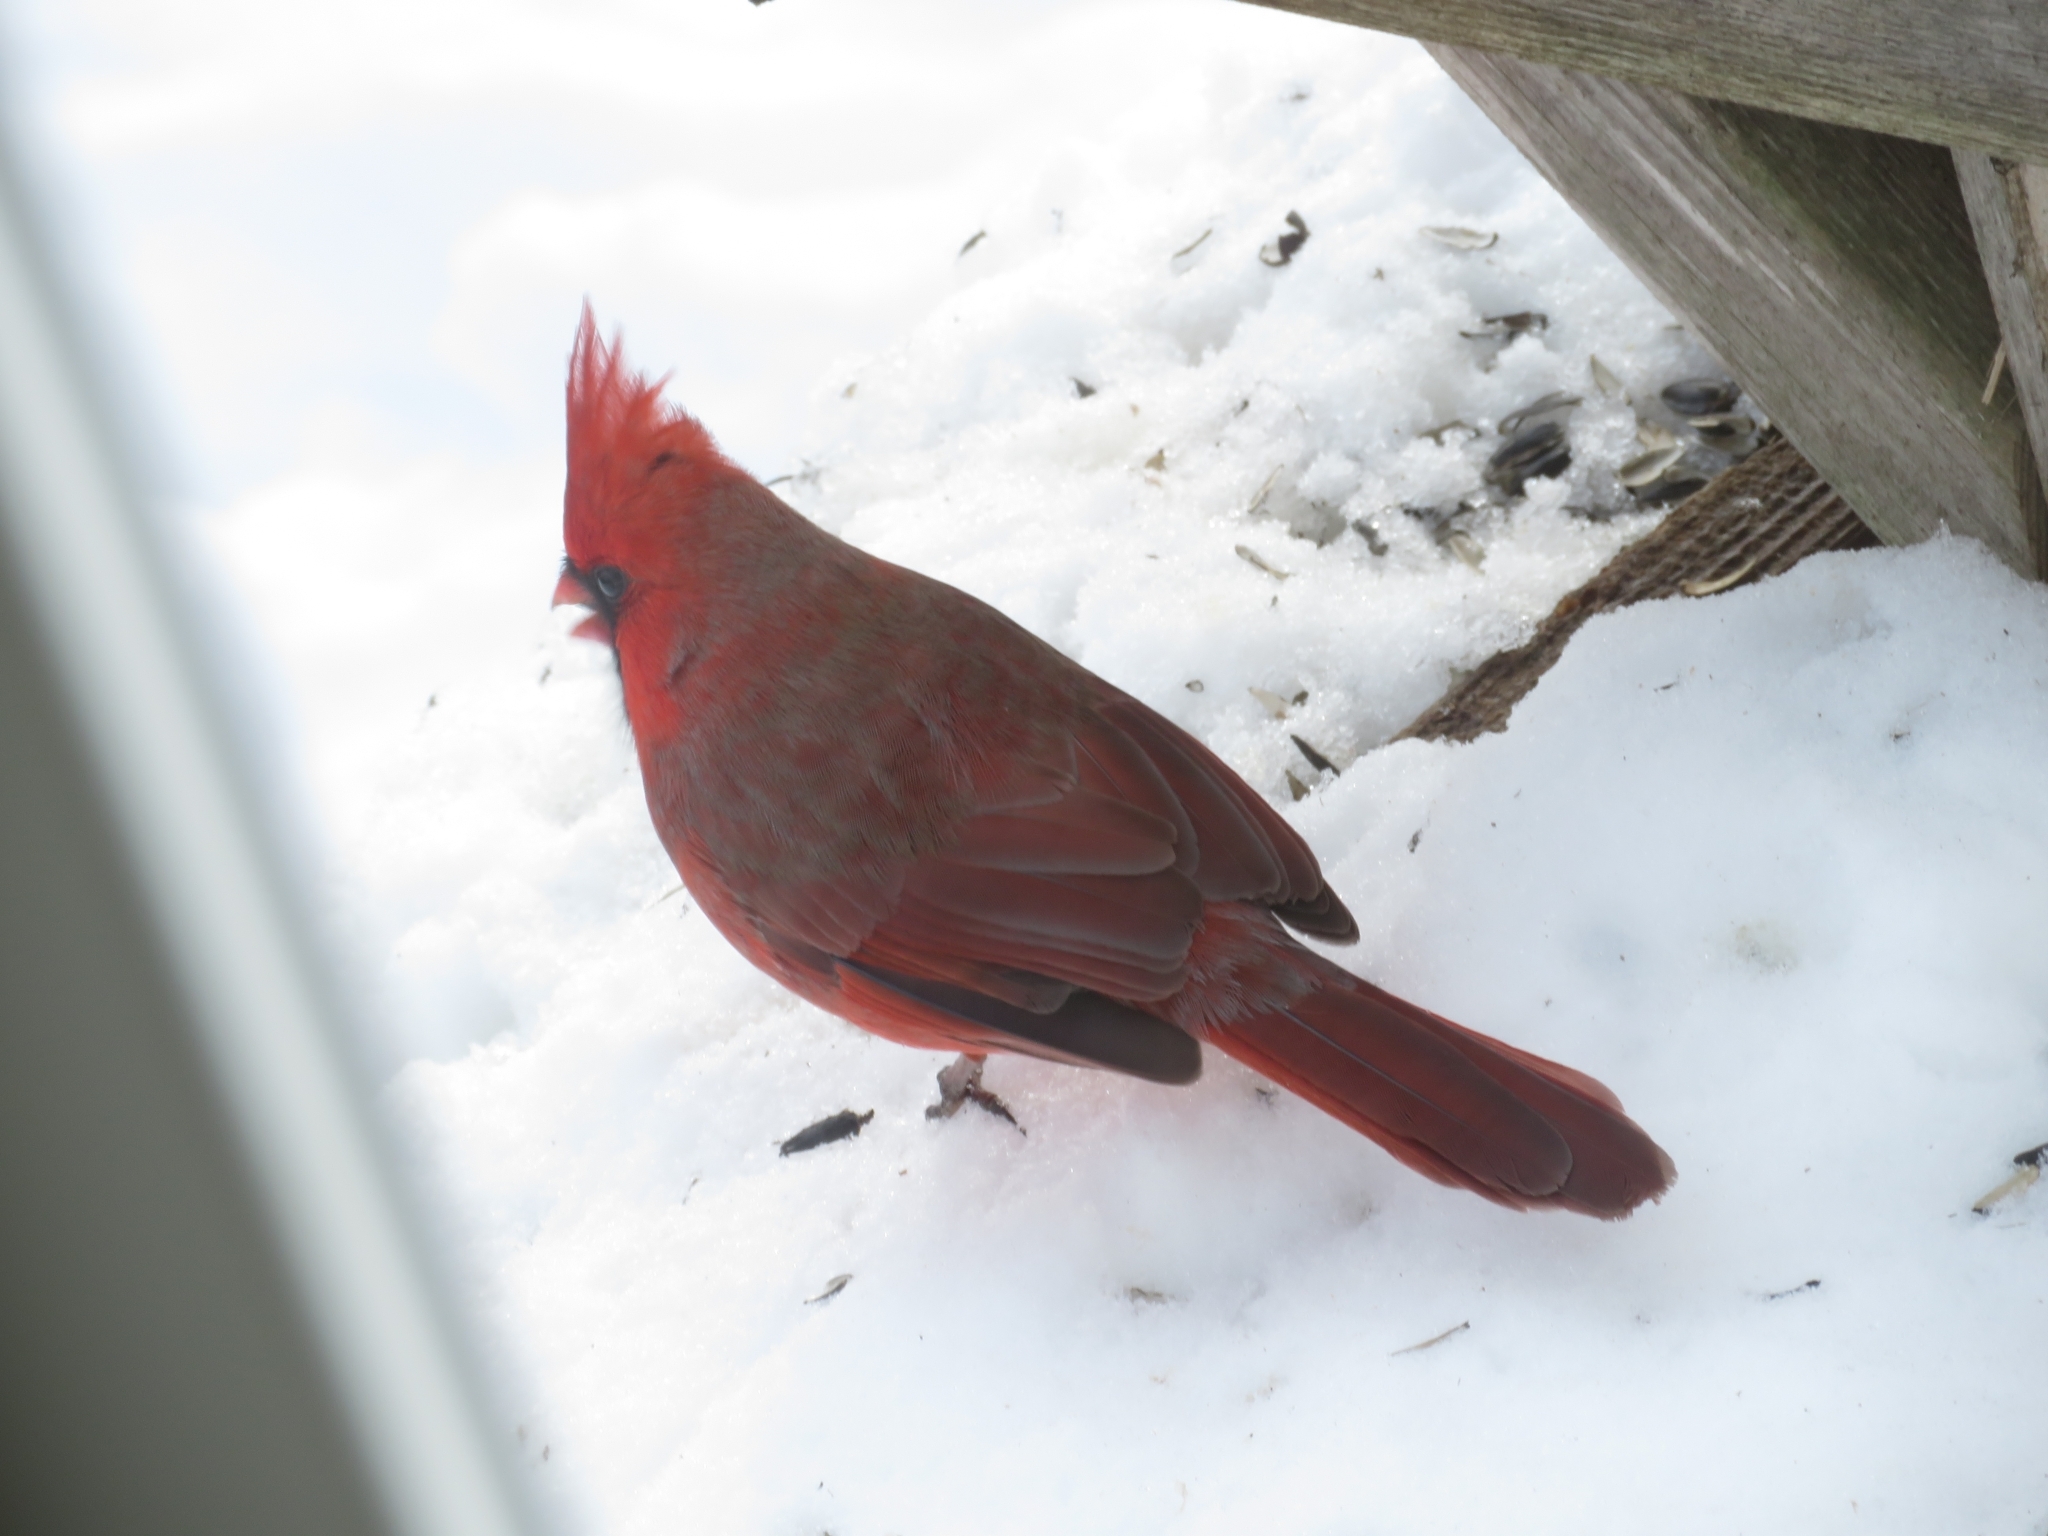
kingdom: Animalia
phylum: Chordata
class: Aves
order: Passeriformes
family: Cardinalidae
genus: Cardinalis
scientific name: Cardinalis cardinalis
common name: Northern cardinal
